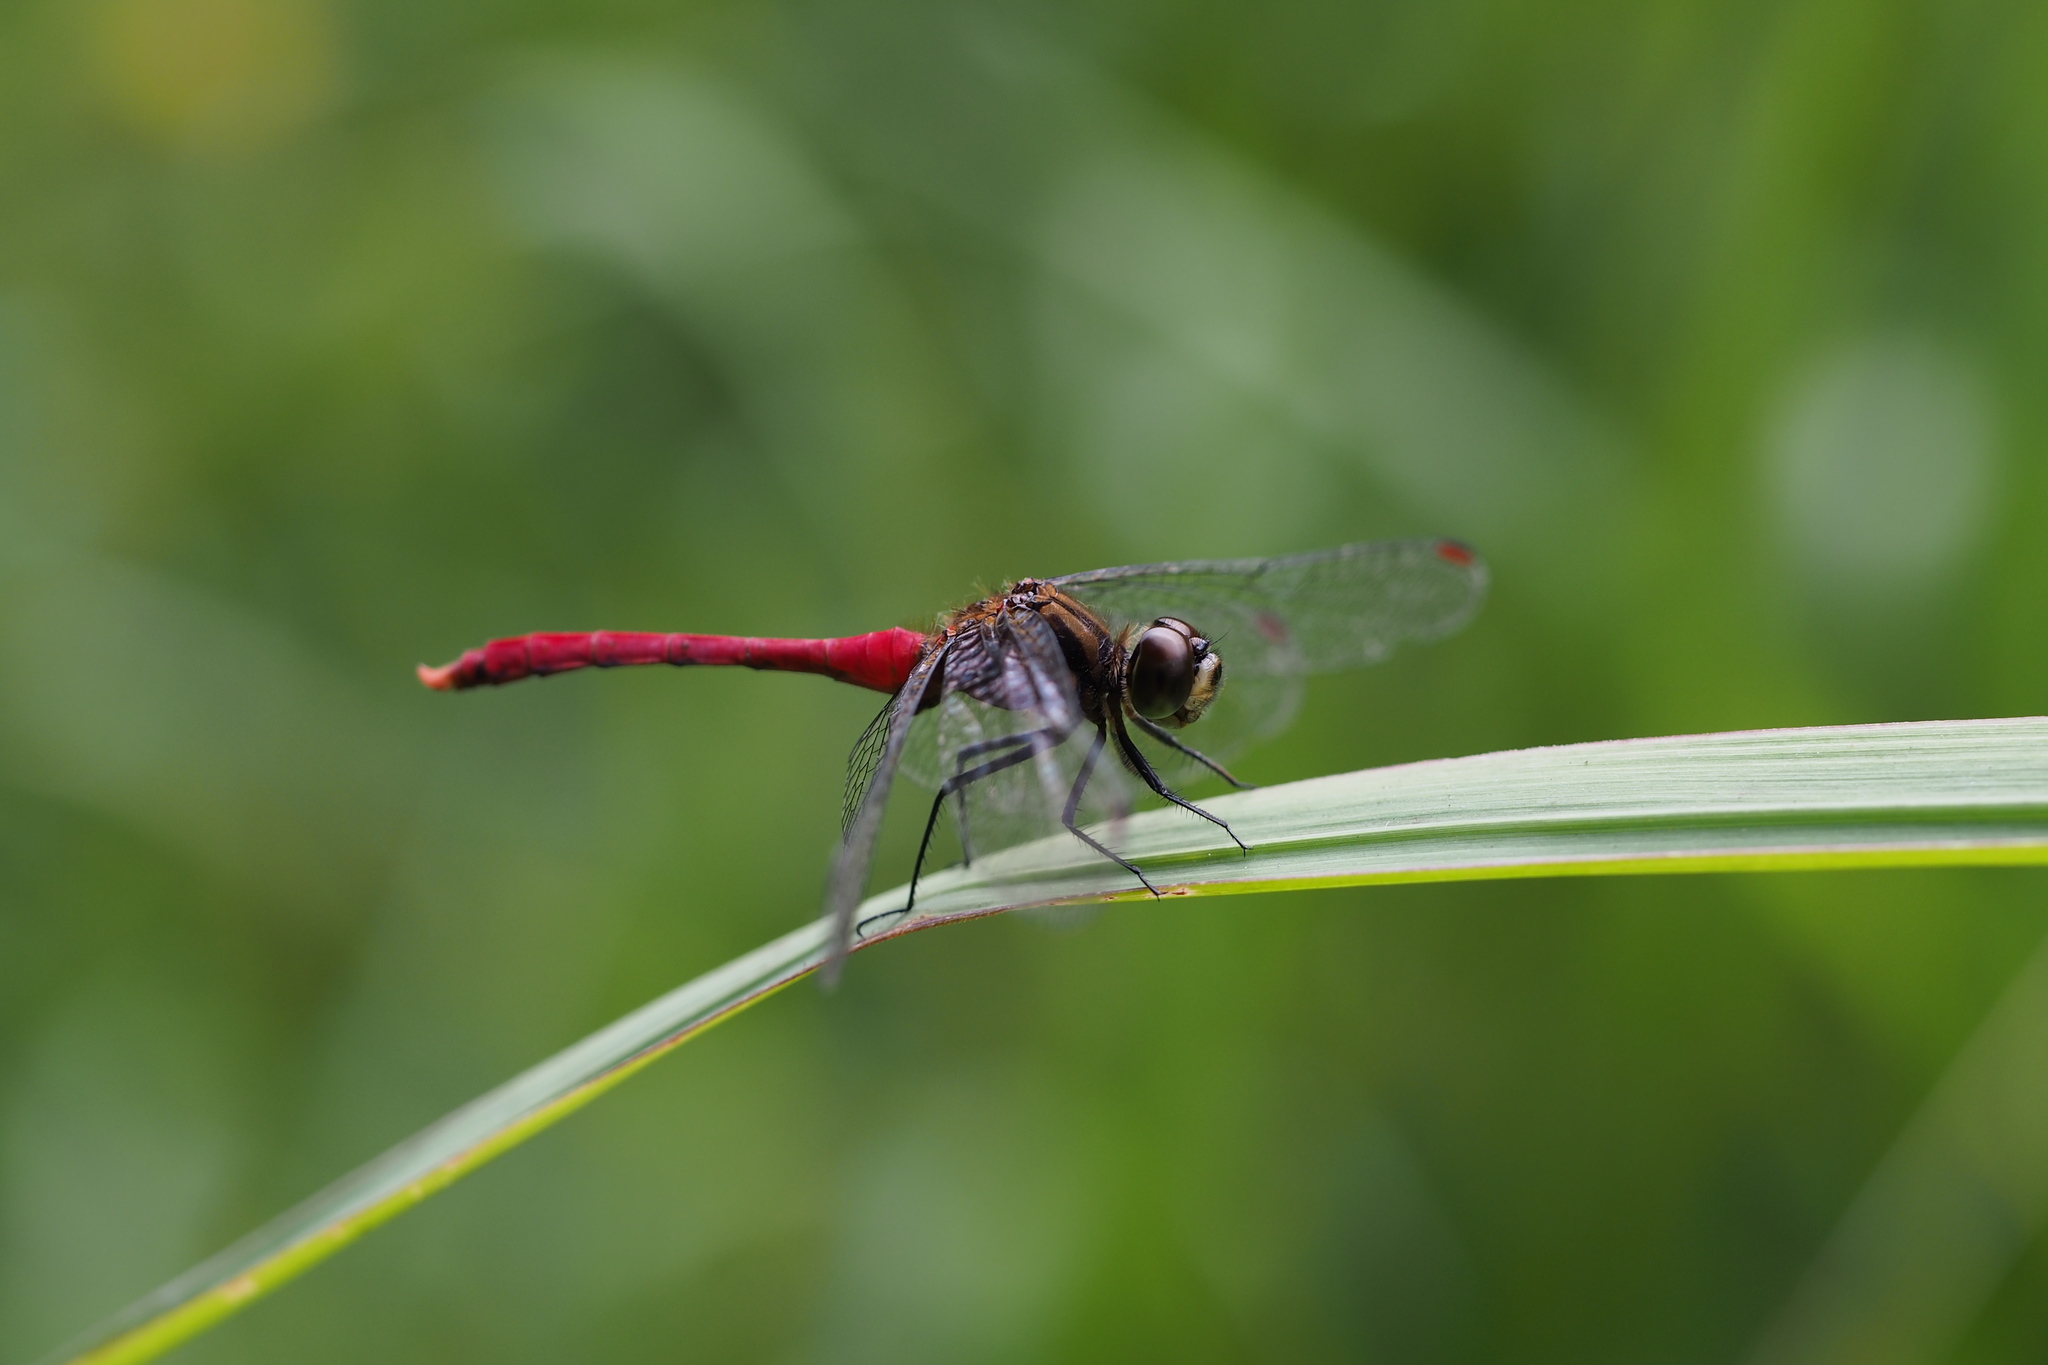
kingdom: Animalia
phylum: Arthropoda
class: Insecta
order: Odonata
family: Libellulidae
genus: Sympetrum
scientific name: Sympetrum eroticum
